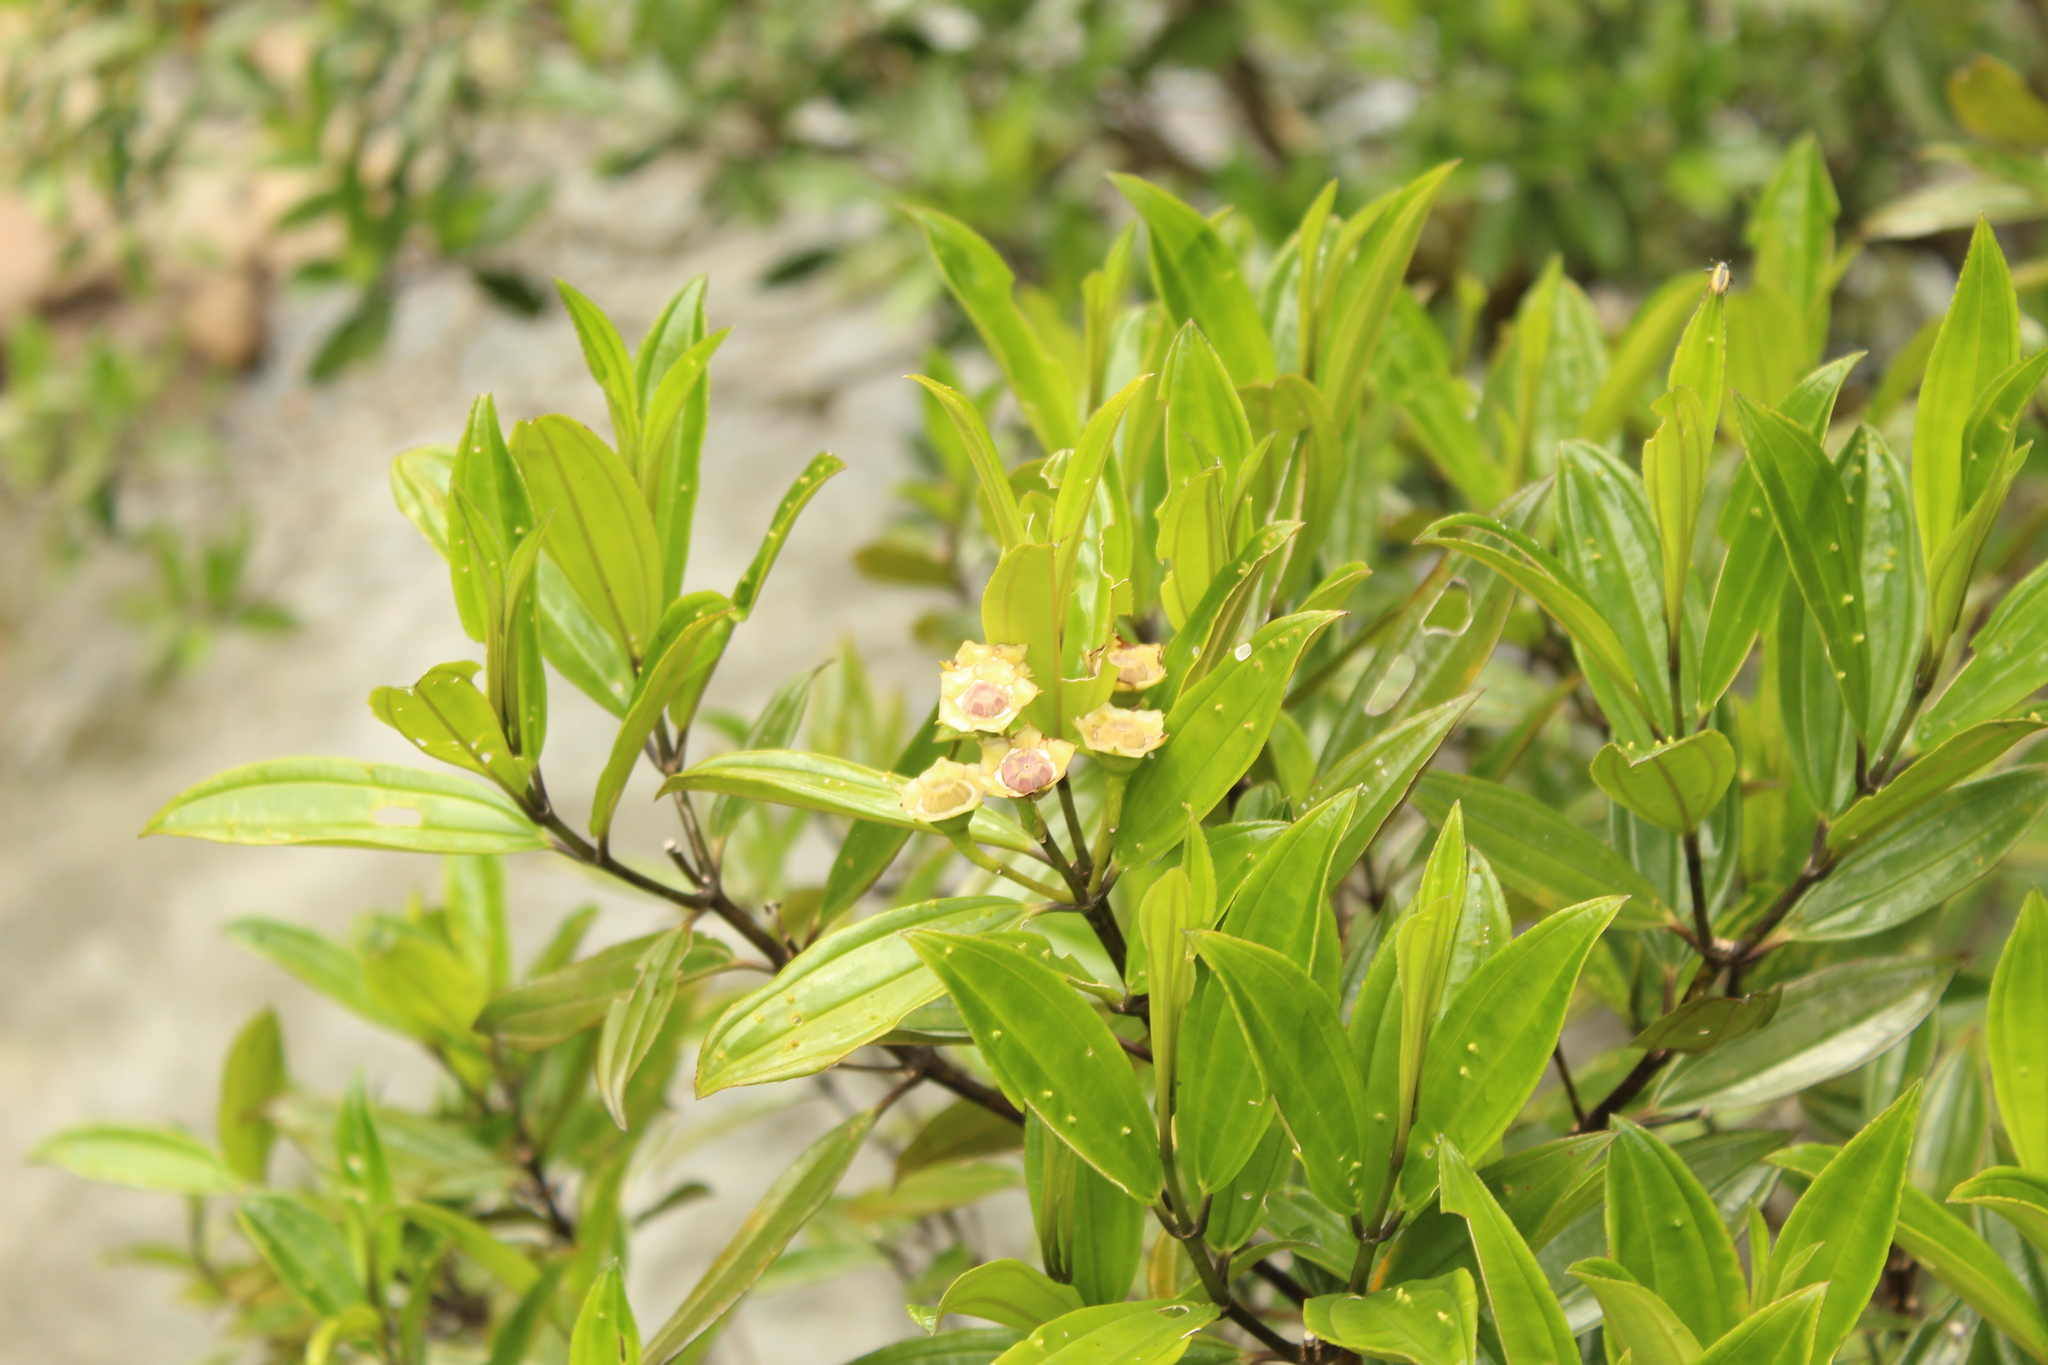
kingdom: Plantae
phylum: Tracheophyta
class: Magnoliopsida
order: Myrtales
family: Melastomataceae
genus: Meriania
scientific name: Meriania speciosa
